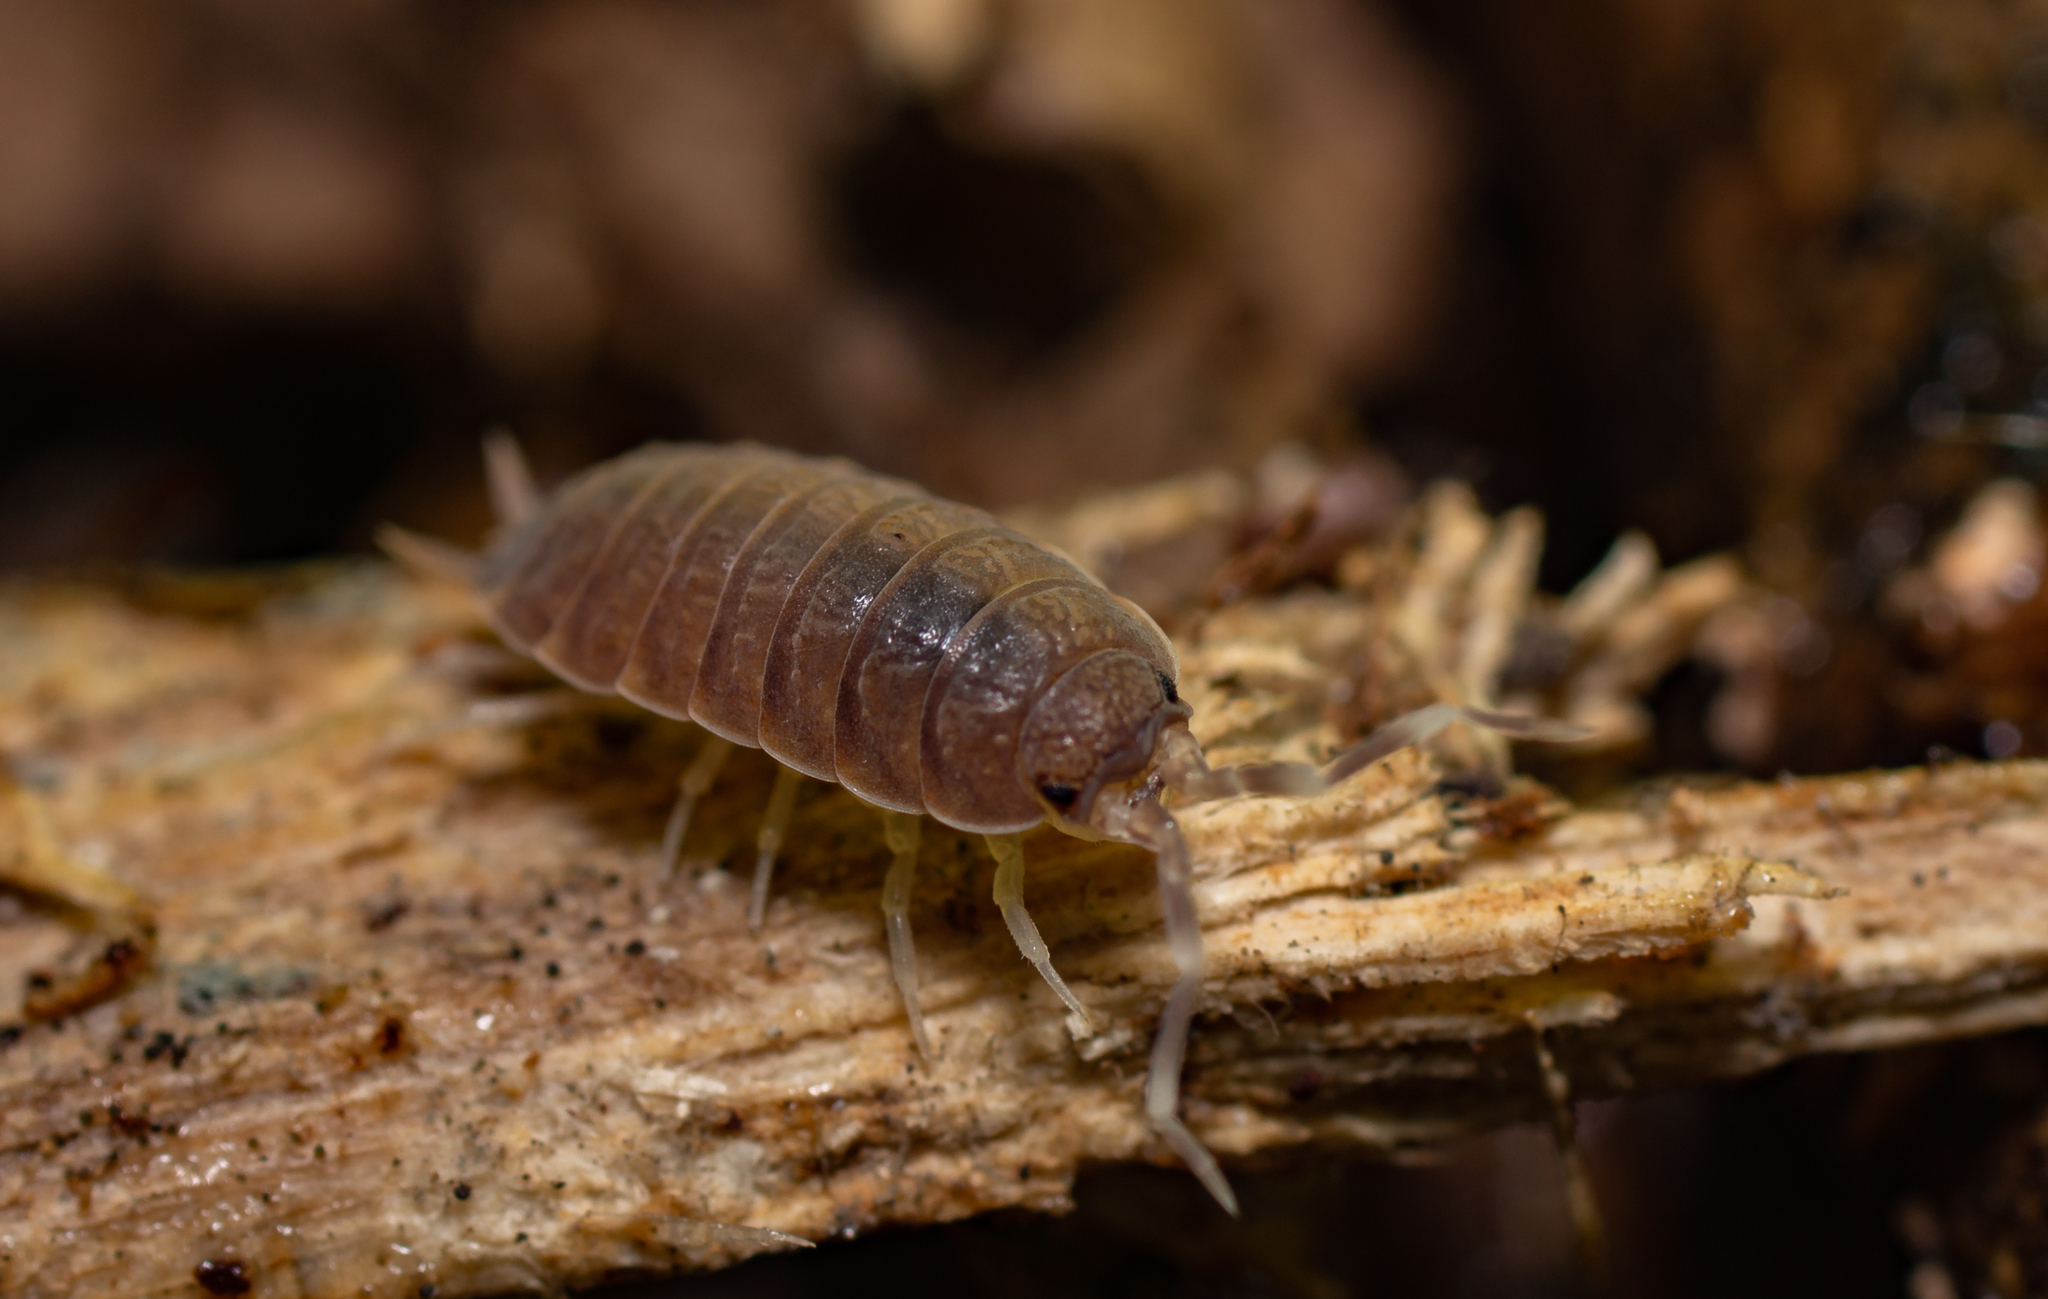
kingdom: Animalia
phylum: Arthropoda
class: Malacostraca
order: Isopoda
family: Porcellionidae
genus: Porcellionides
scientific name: Porcellionides pruinosus
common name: Plum woodlouse
